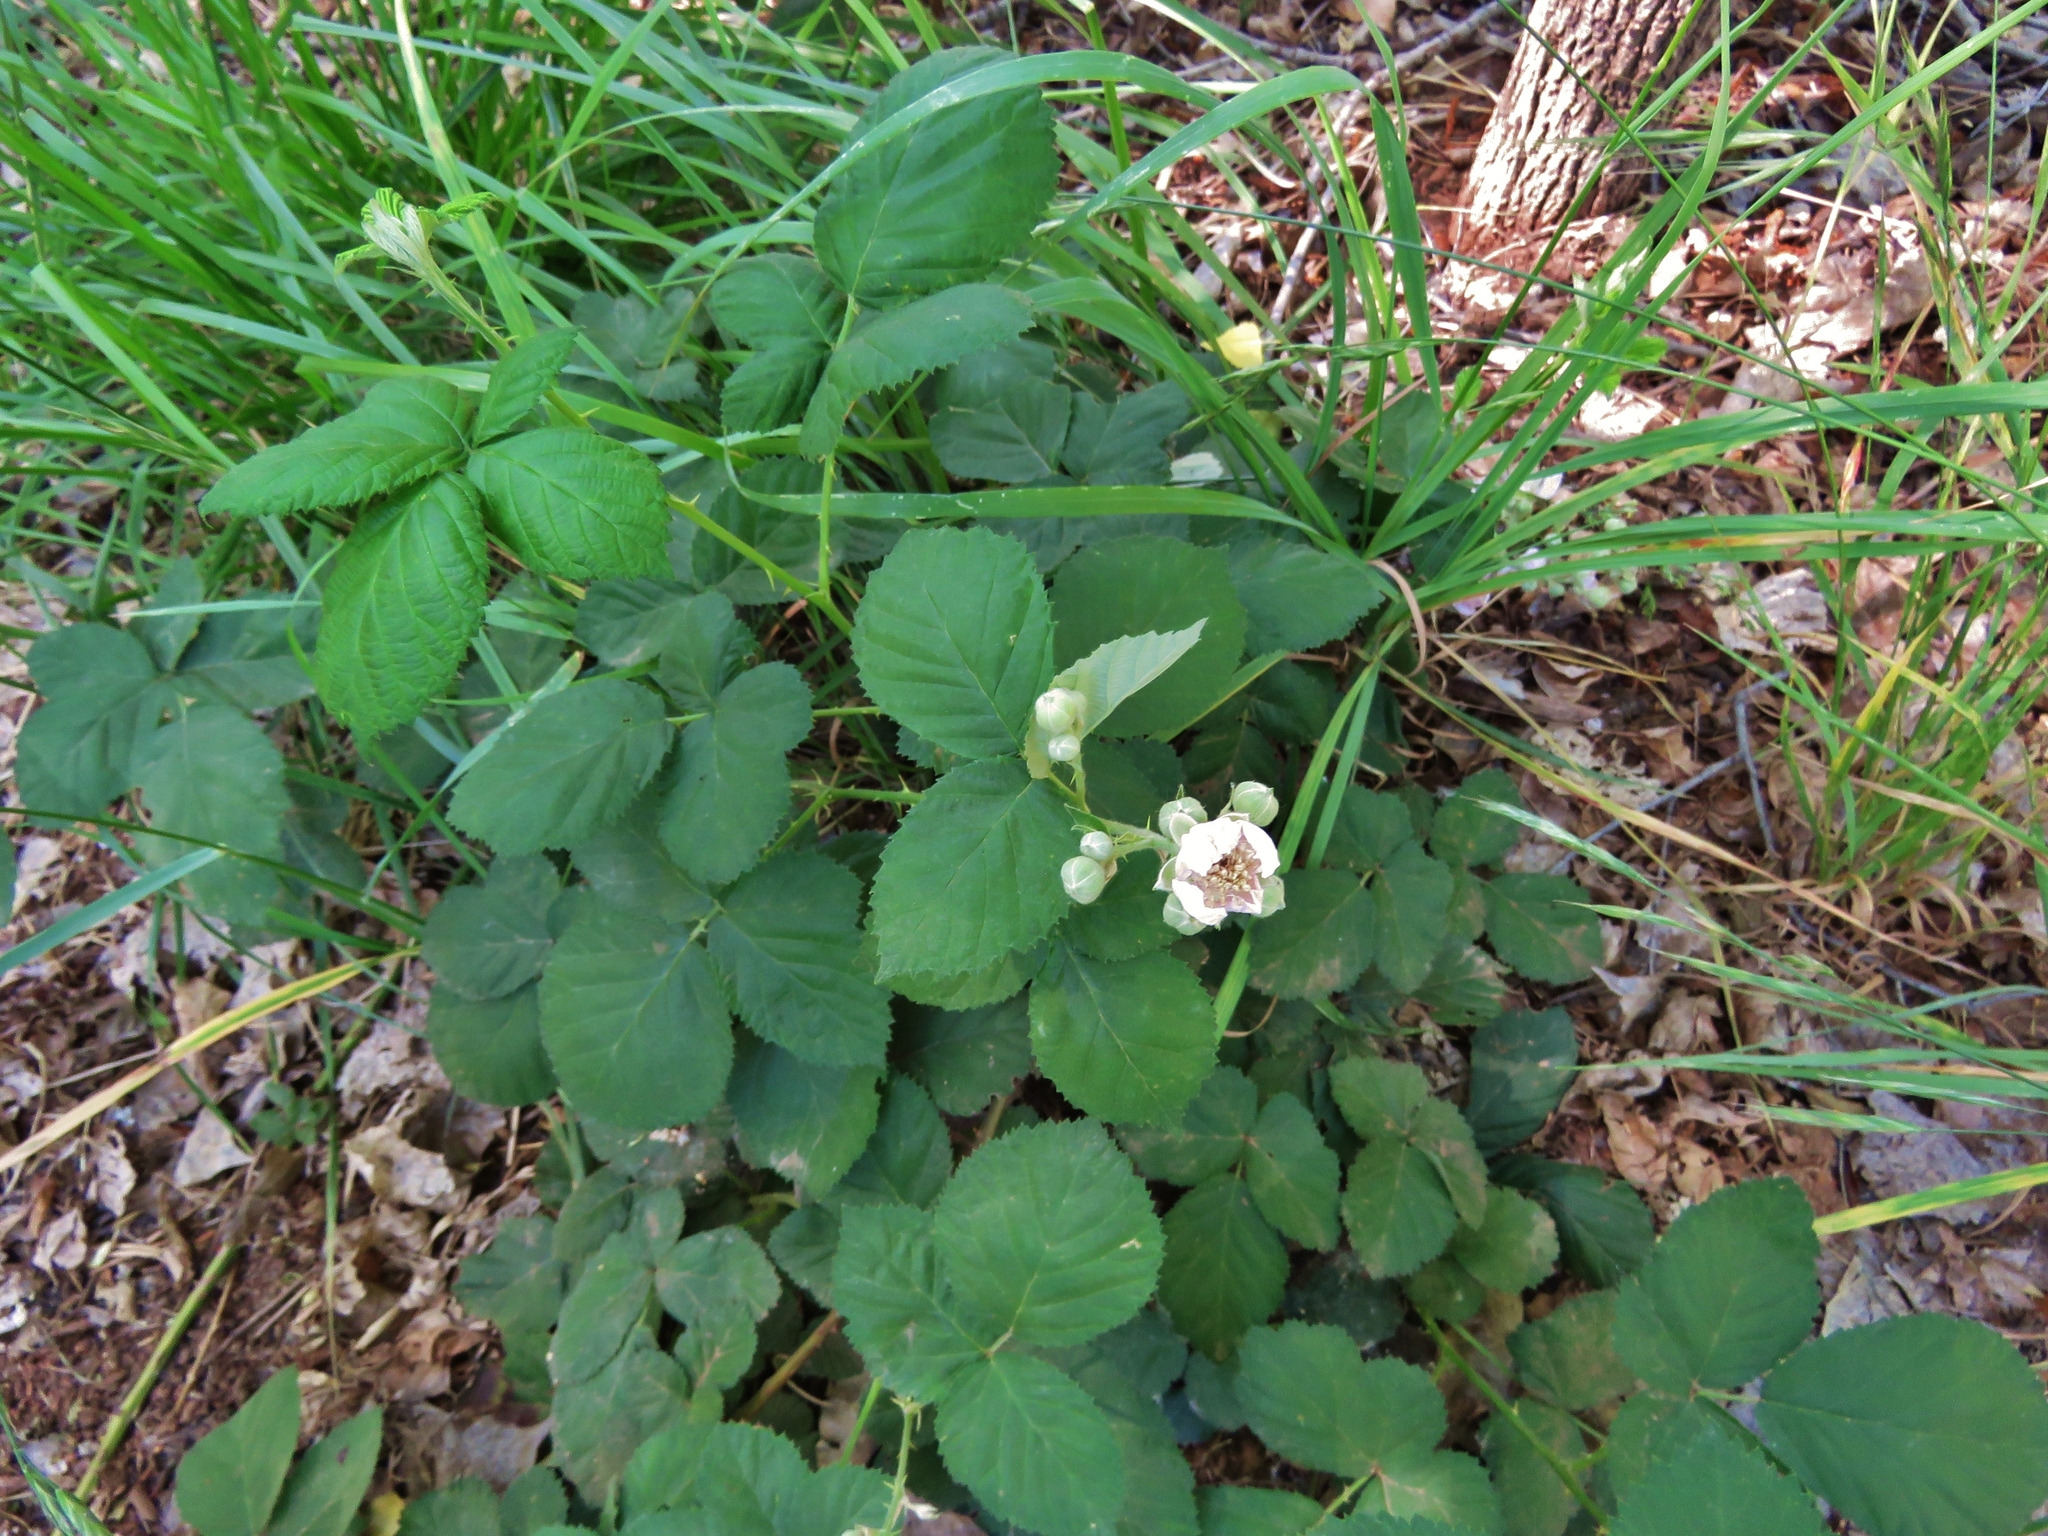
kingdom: Plantae
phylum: Tracheophyta
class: Magnoliopsida
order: Rosales
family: Rosaceae
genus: Rubus
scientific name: Rubus armeniacus
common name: Himalayan blackberry
